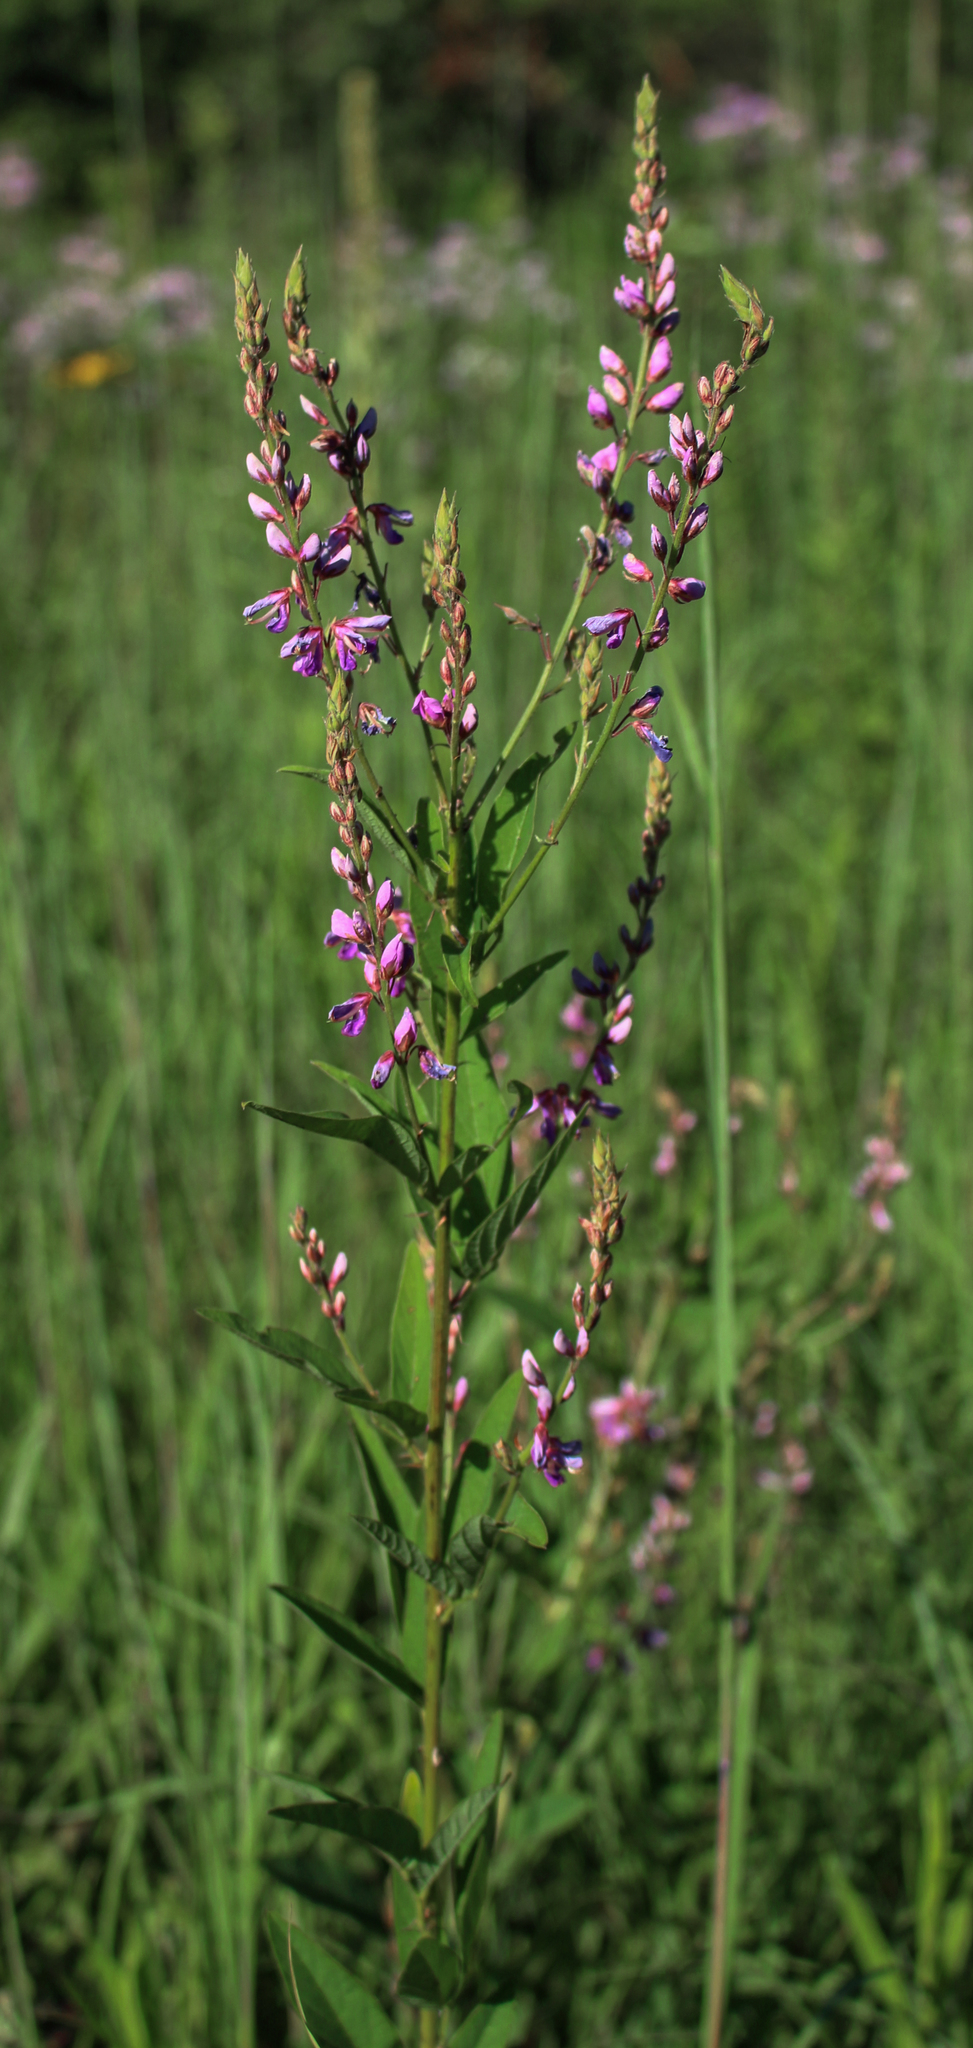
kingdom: Plantae
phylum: Tracheophyta
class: Magnoliopsida
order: Fabales
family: Fabaceae
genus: Desmodium
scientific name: Desmodium canadense
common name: Canada tick-trefoil
